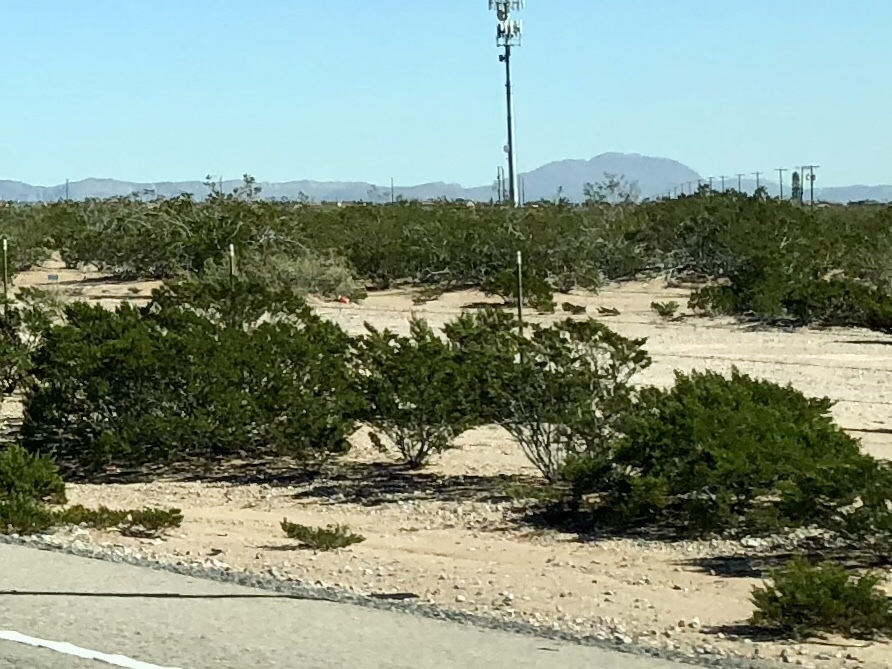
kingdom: Plantae
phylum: Tracheophyta
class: Magnoliopsida
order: Zygophyllales
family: Zygophyllaceae
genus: Larrea
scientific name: Larrea tridentata
